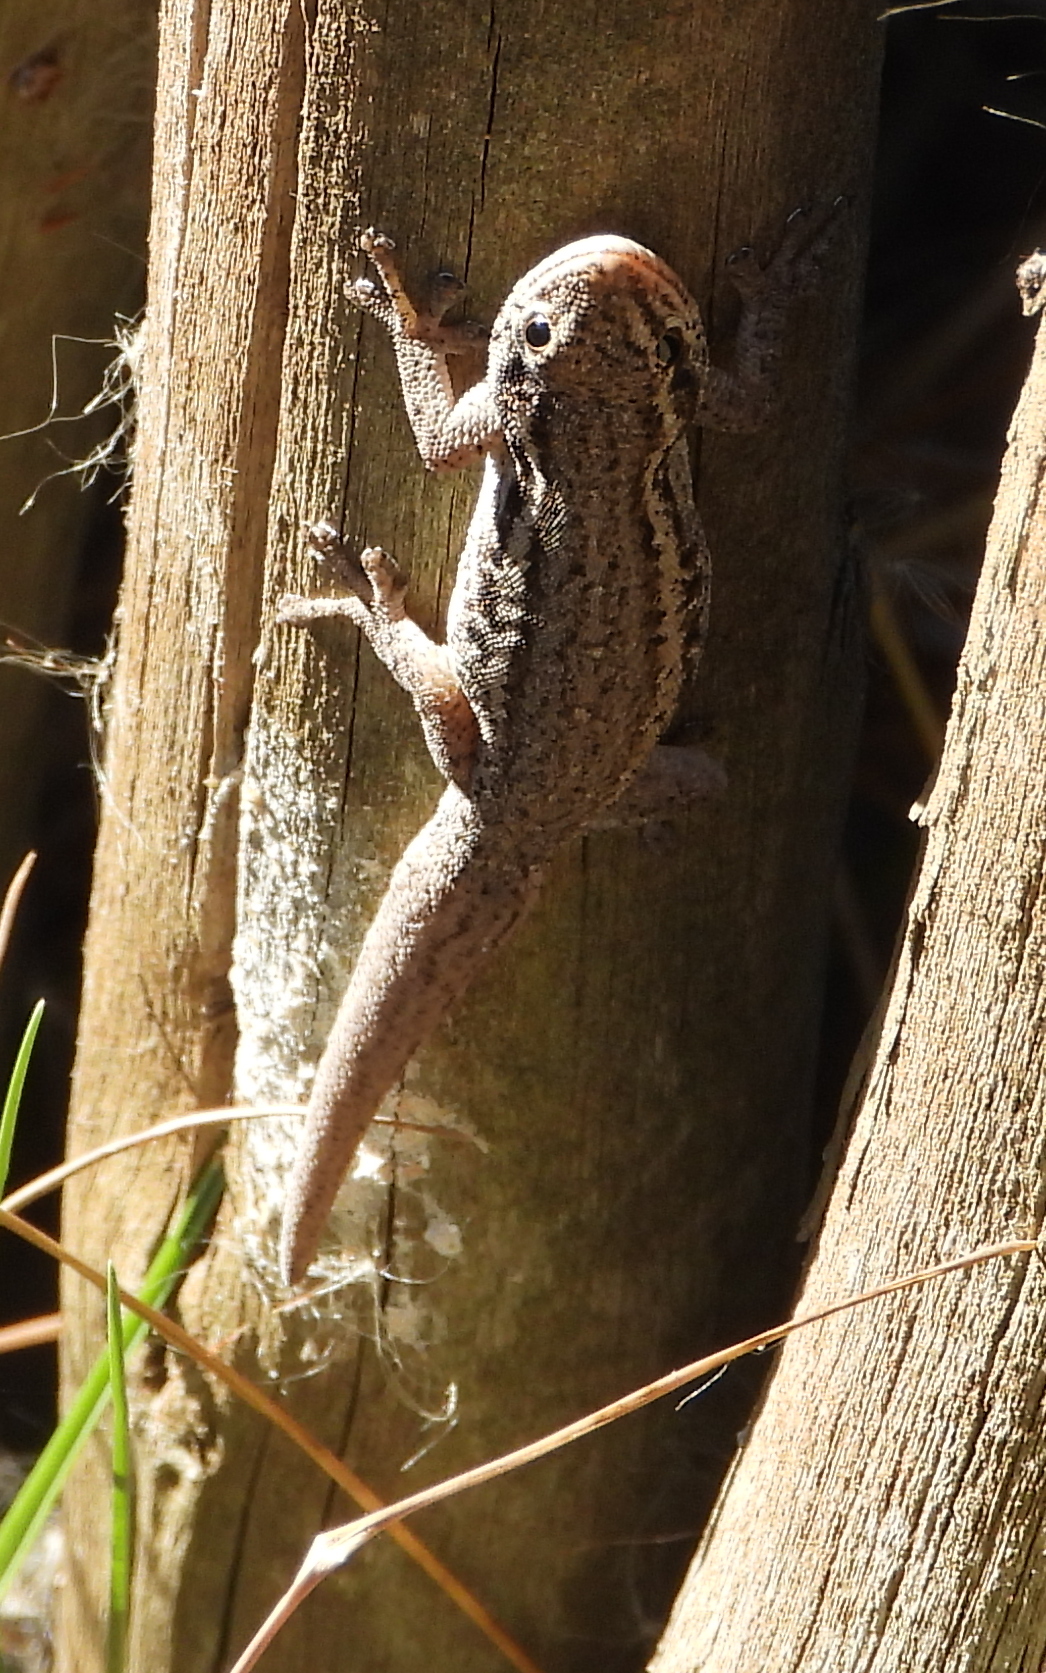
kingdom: Animalia
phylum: Chordata
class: Squamata
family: Gekkonidae
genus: Lygodactylus
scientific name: Lygodactylus capensis
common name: Cape dwarf gecko
